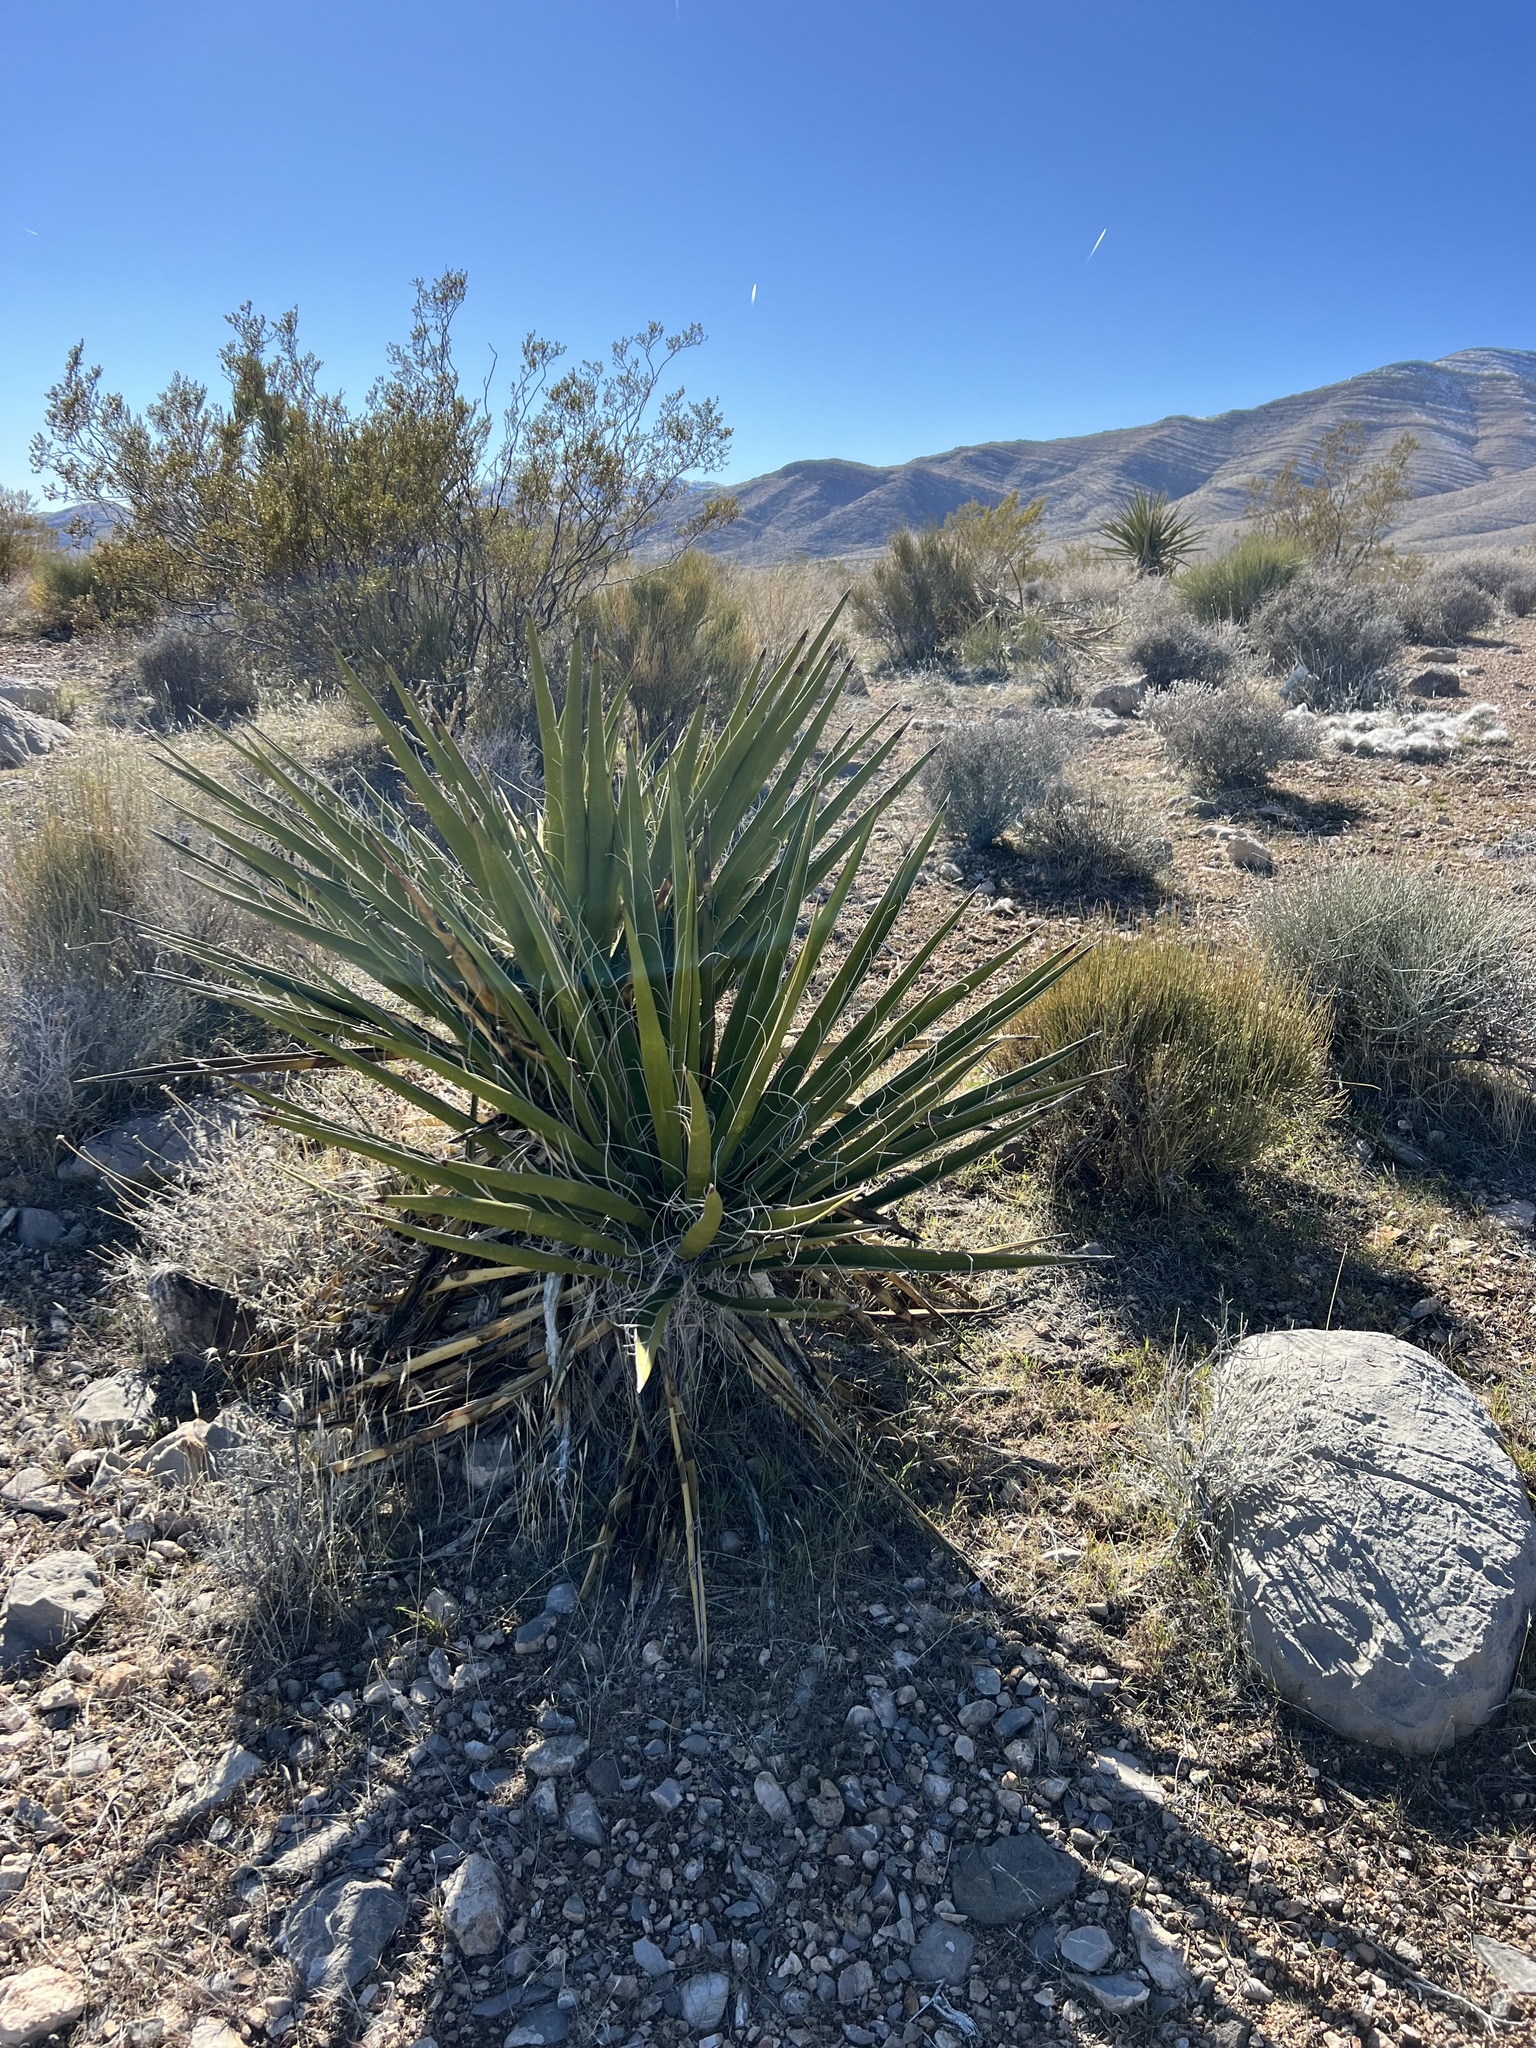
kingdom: Plantae
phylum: Tracheophyta
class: Liliopsida
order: Asparagales
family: Asparagaceae
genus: Yucca
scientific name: Yucca schidigera
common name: Mojave yucca
